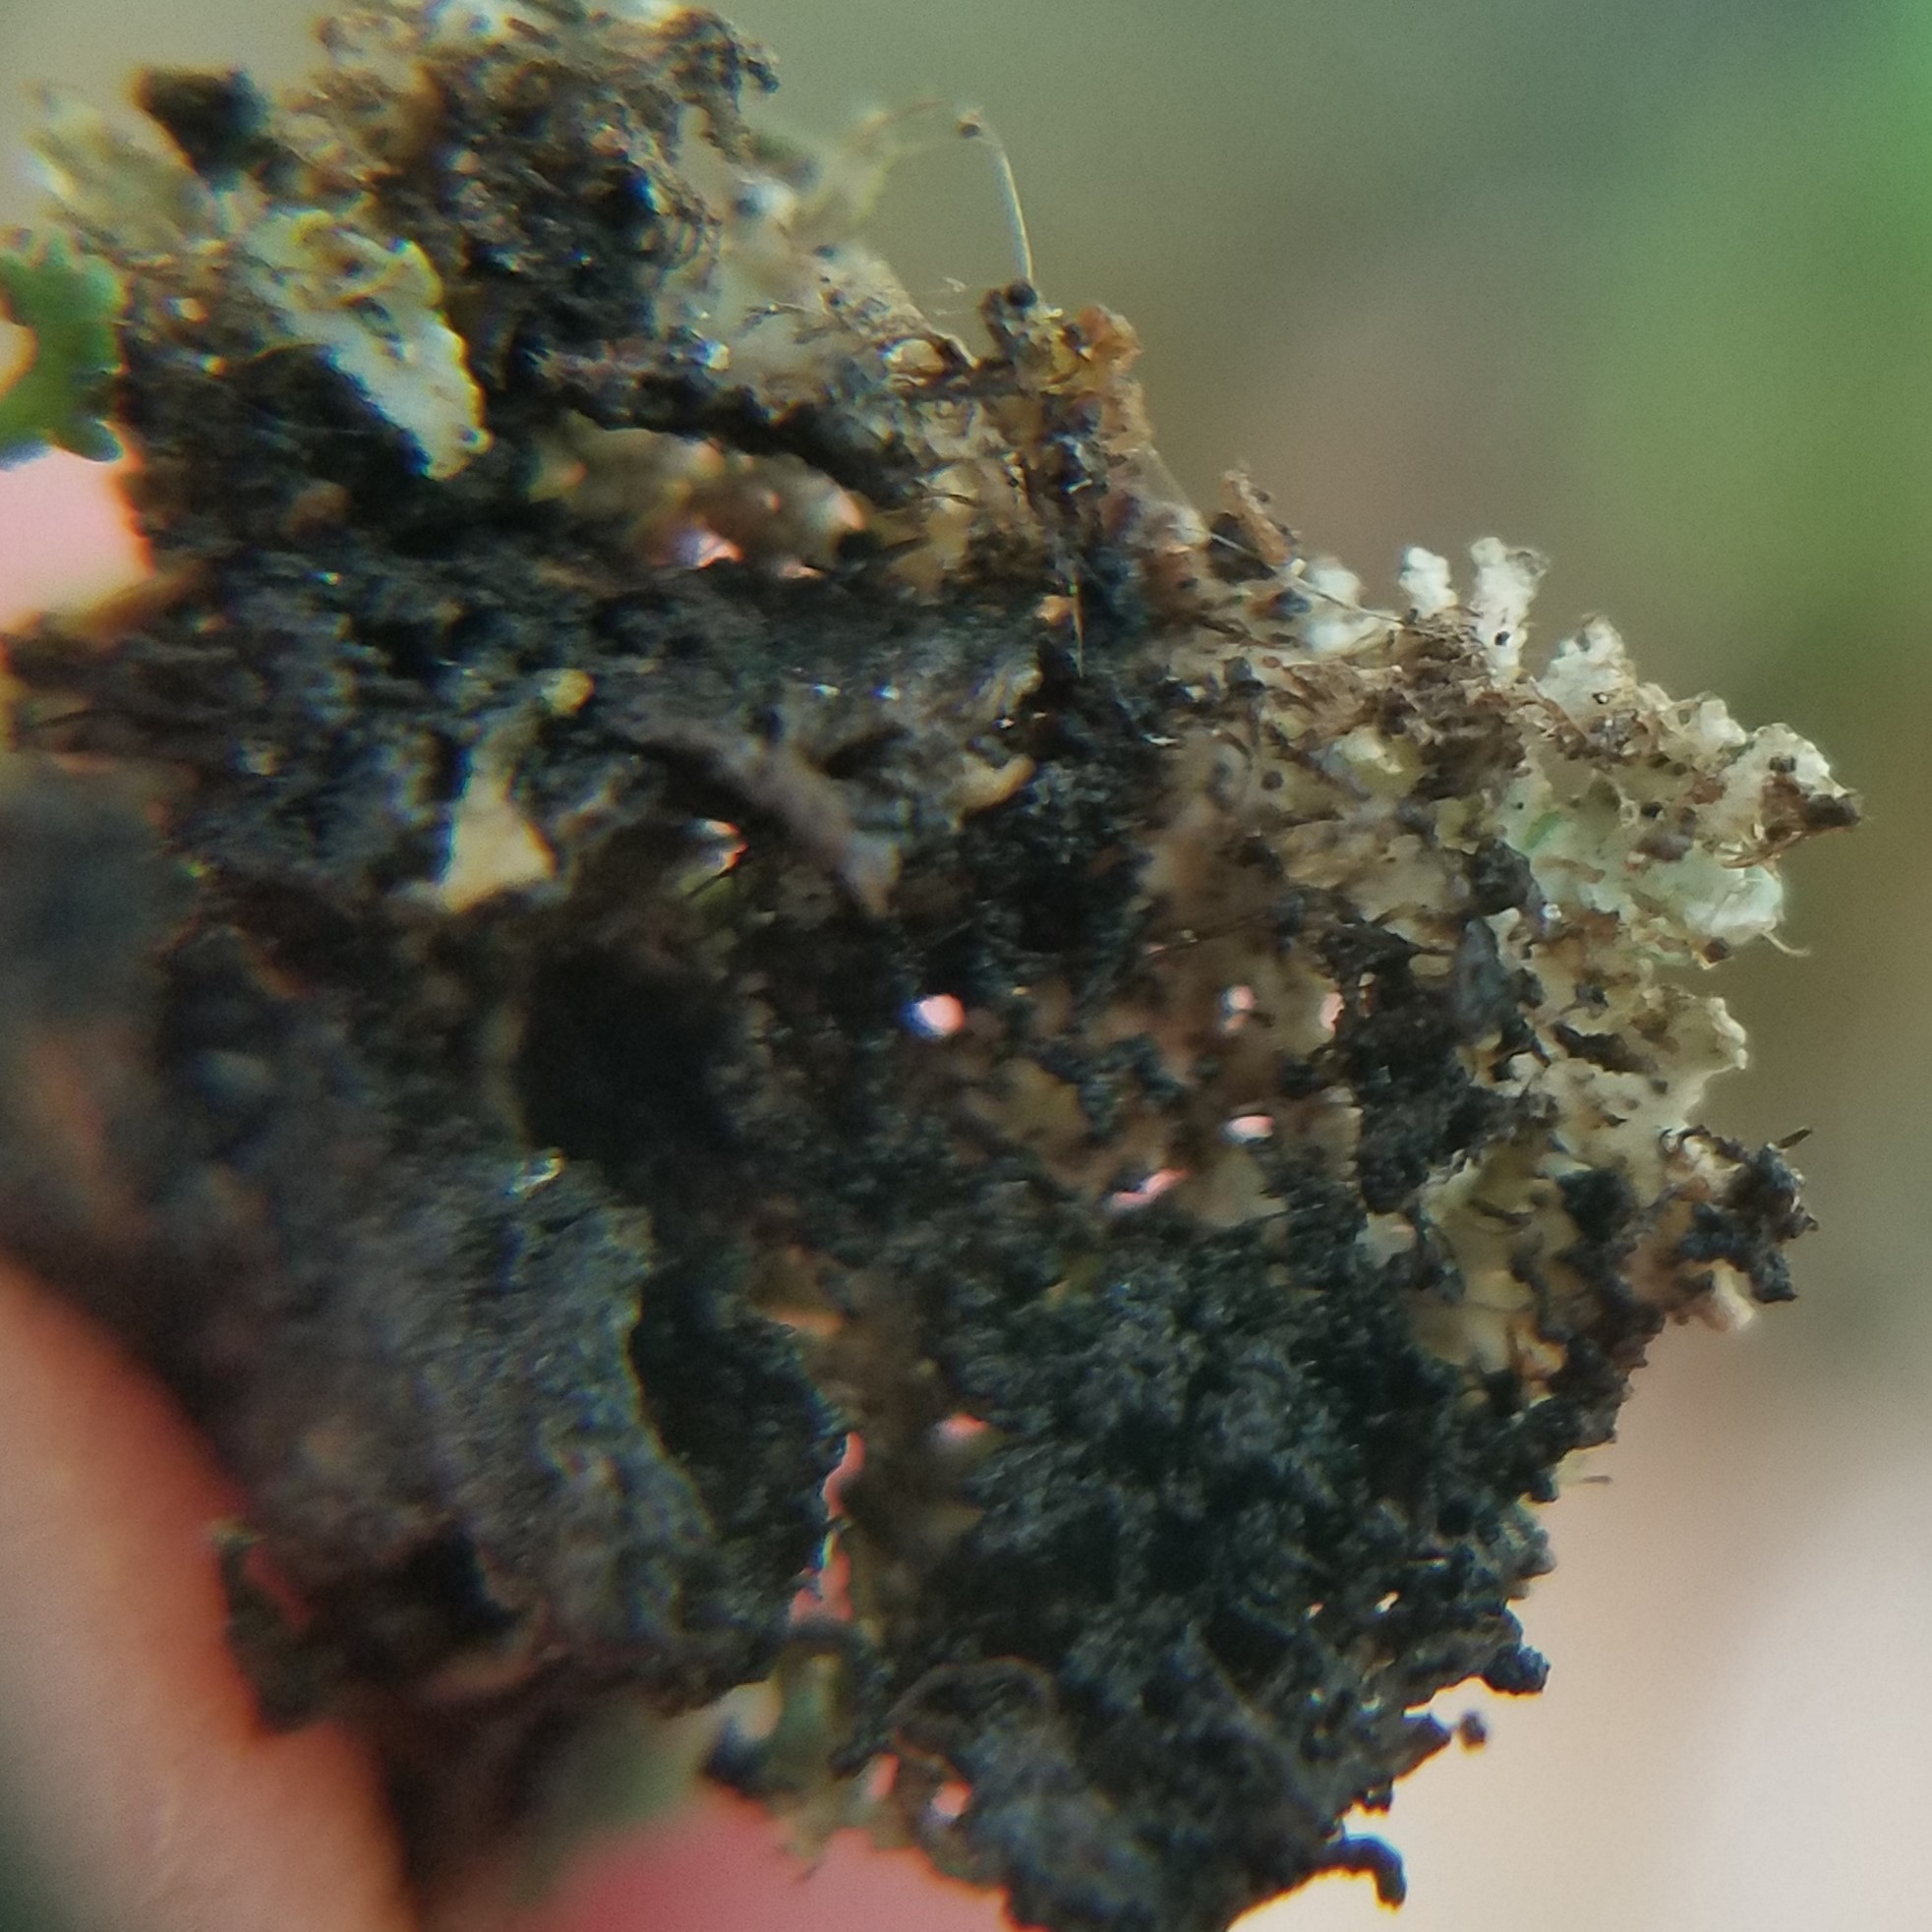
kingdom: Fungi
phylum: Ascomycota
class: Lecanoromycetes
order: Caliciales
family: Physciaceae
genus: Kurokawia
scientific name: Kurokawia palmulata
